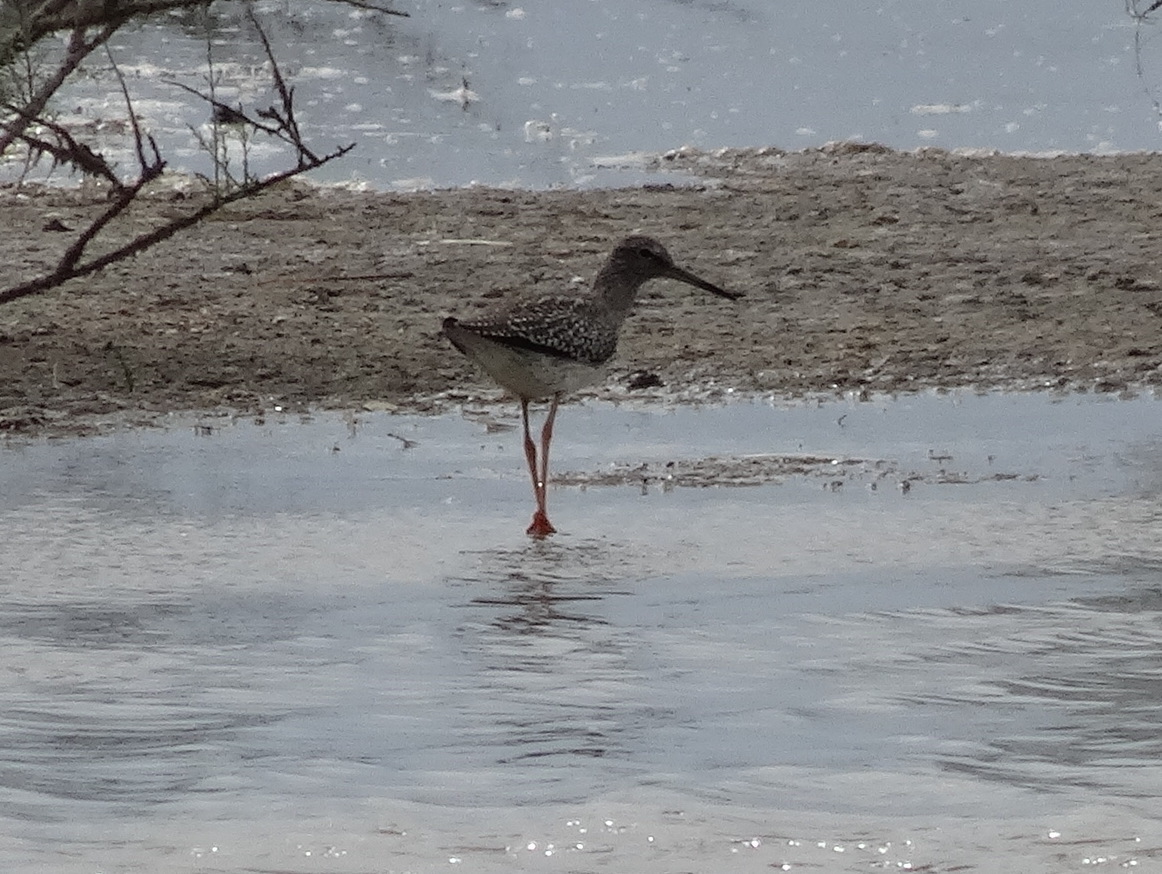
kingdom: Animalia
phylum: Chordata
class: Aves
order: Charadriiformes
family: Scolopacidae
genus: Tringa
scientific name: Tringa totanus
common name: Common redshank
